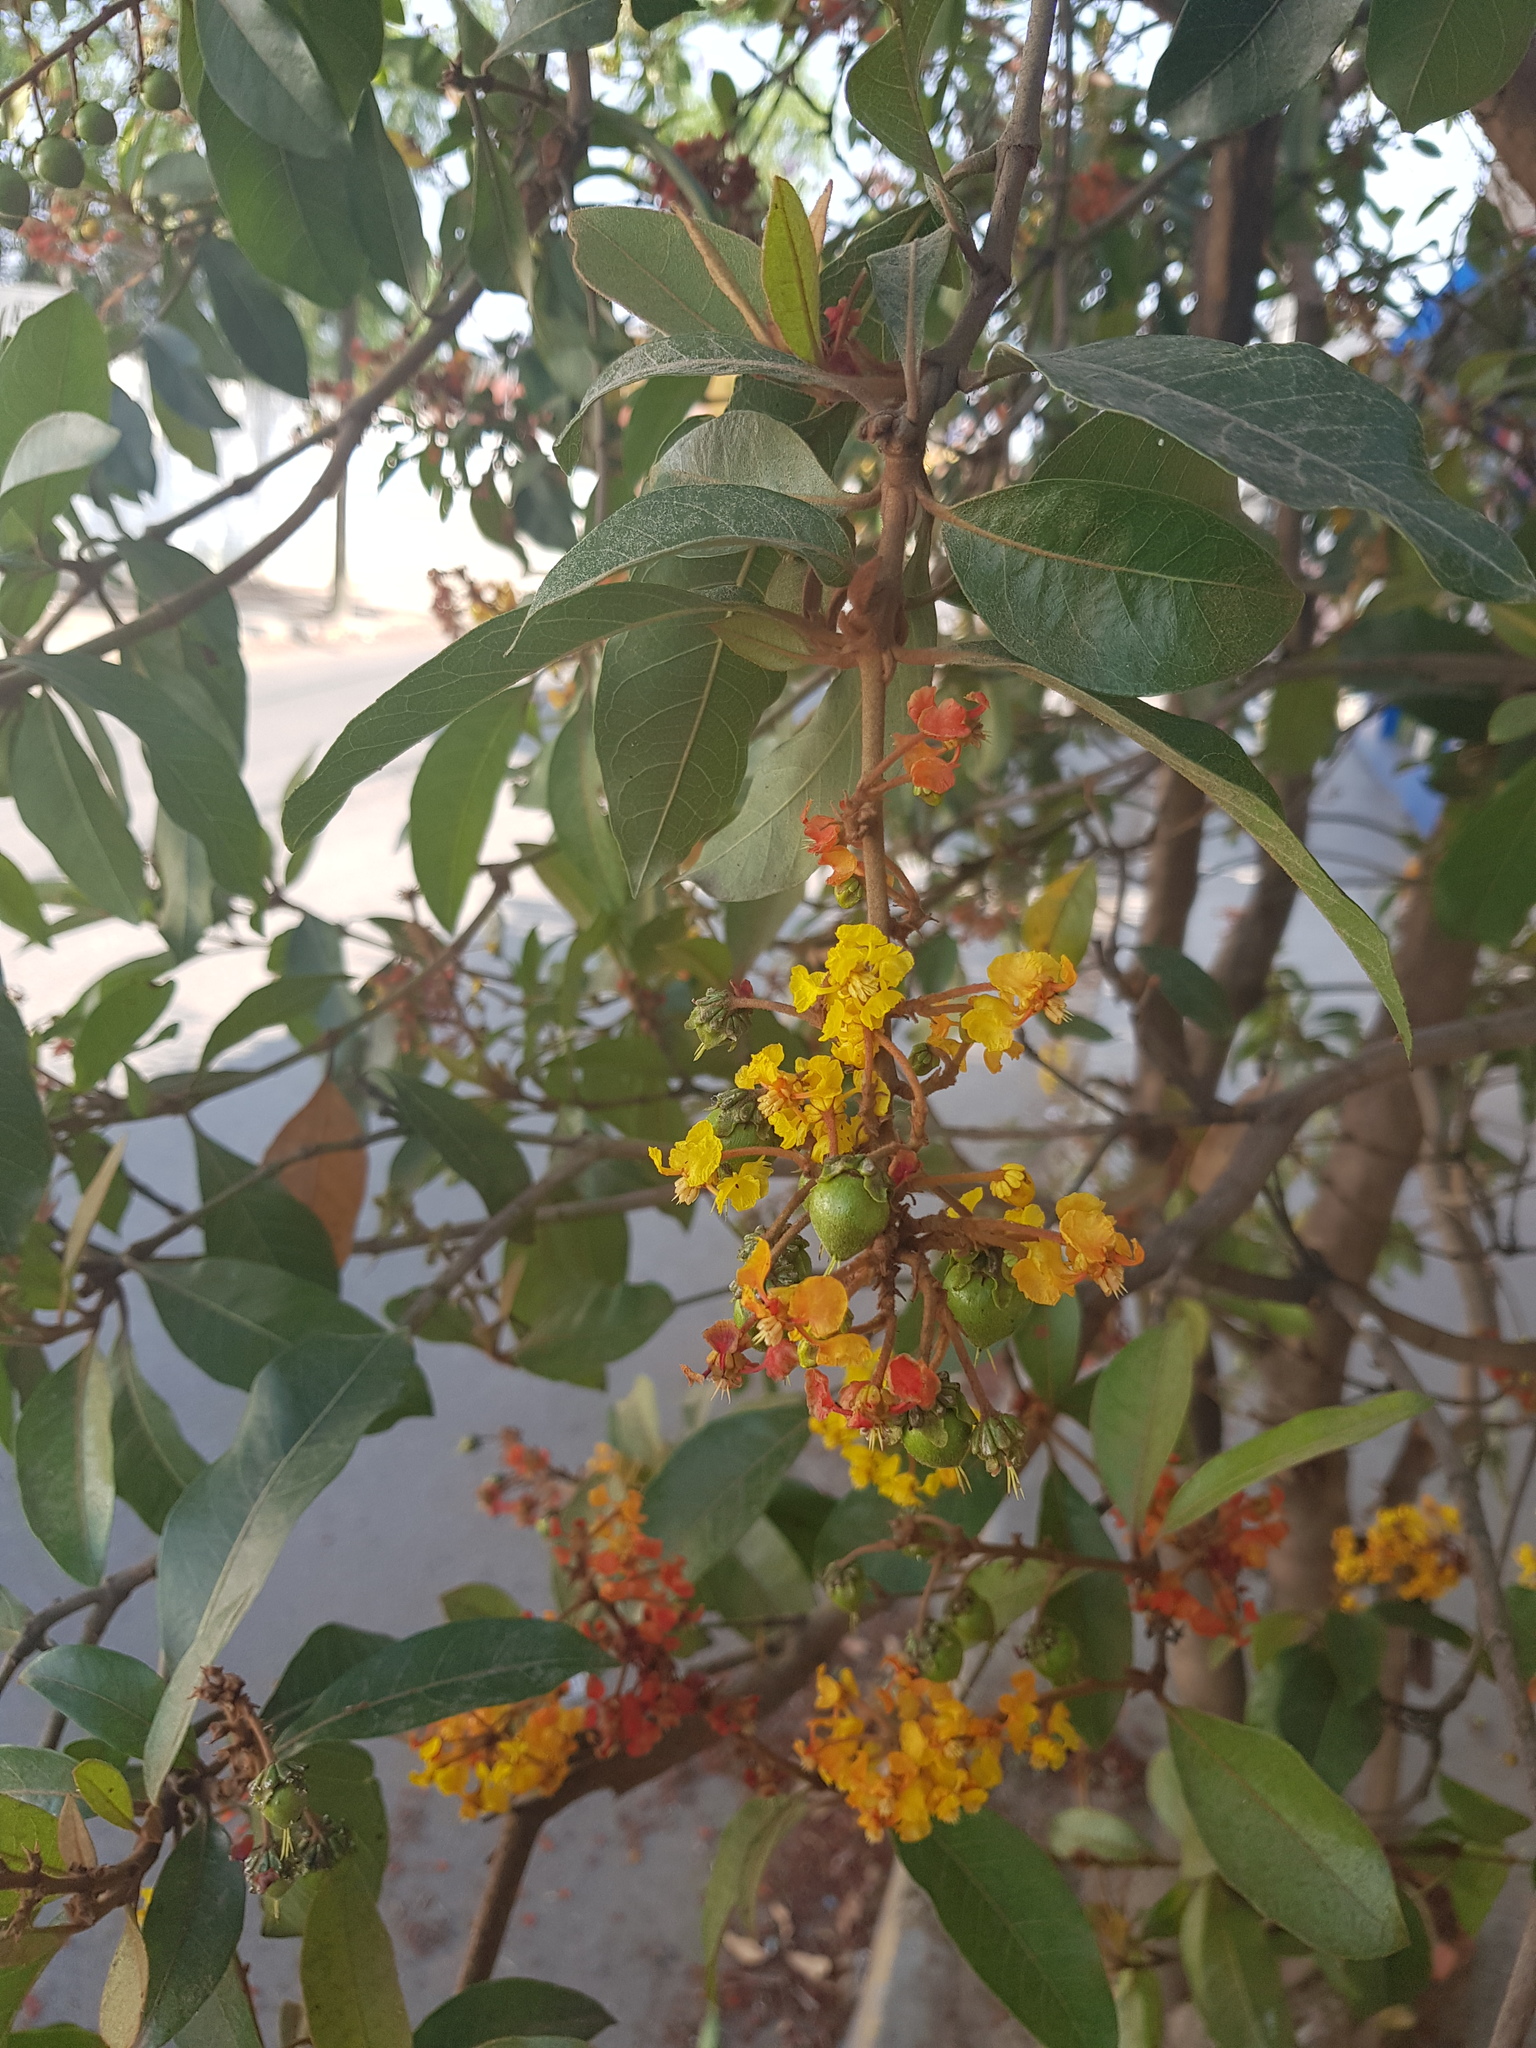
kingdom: Plantae
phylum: Tracheophyta
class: Magnoliopsida
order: Malpighiales
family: Malpighiaceae
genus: Byrsonima
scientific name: Byrsonima crassifolia
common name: Golden spoon
